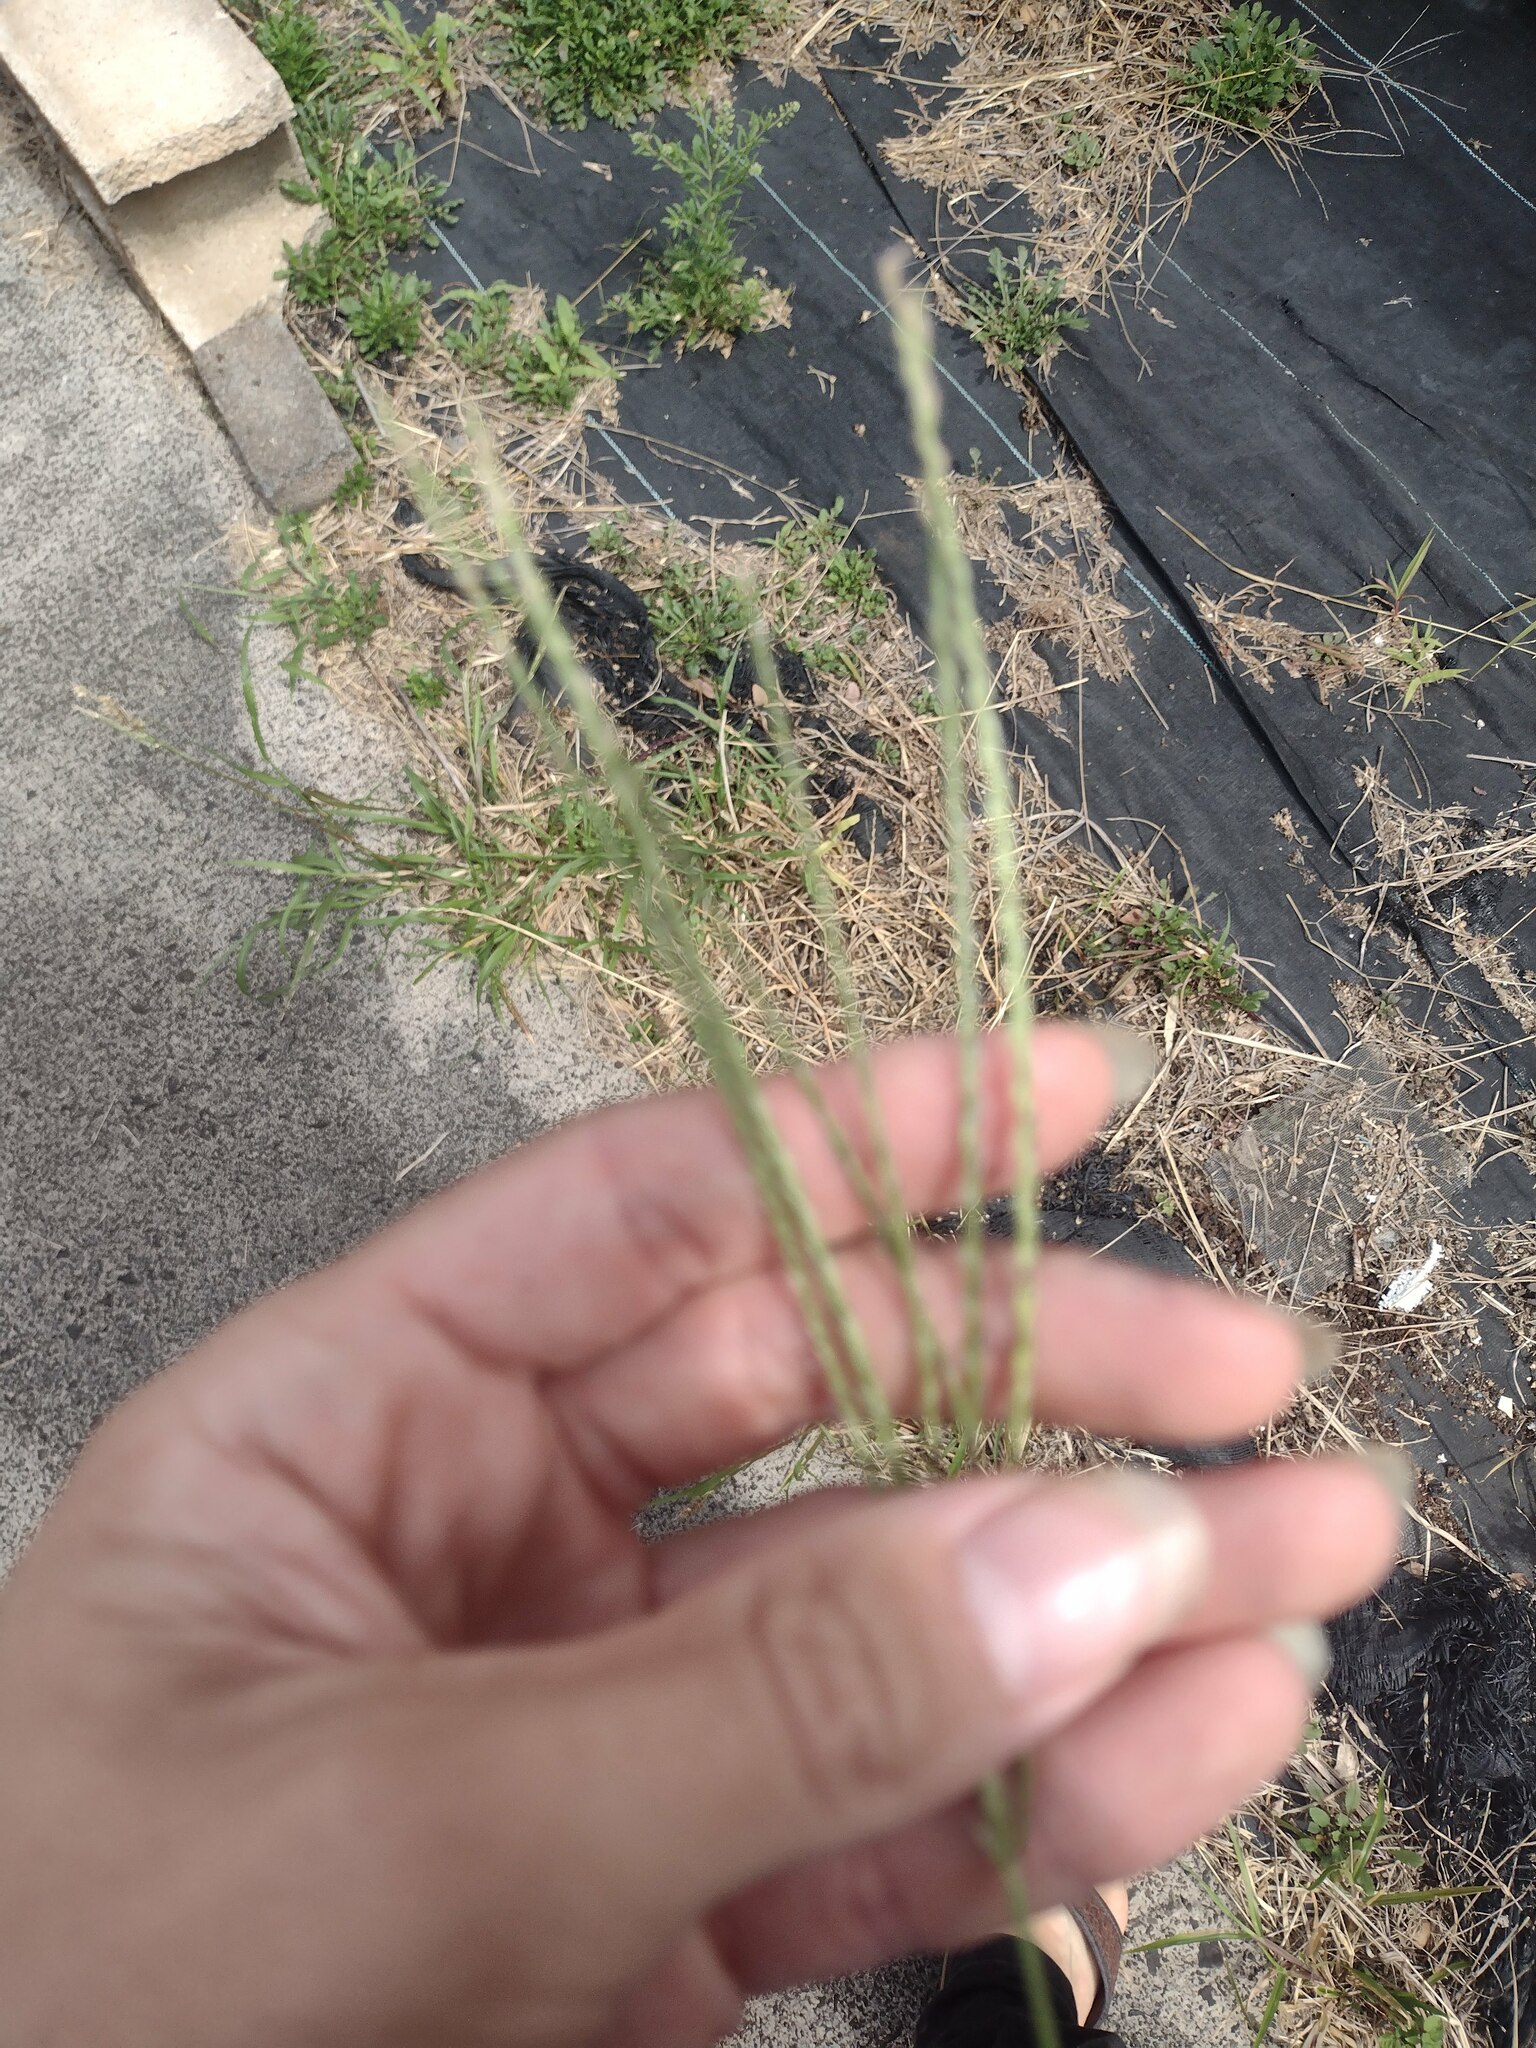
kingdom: Plantae
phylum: Tracheophyta
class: Liliopsida
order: Poales
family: Poaceae
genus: Digitaria
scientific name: Digitaria ciliaris
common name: Tropical finger-grass
